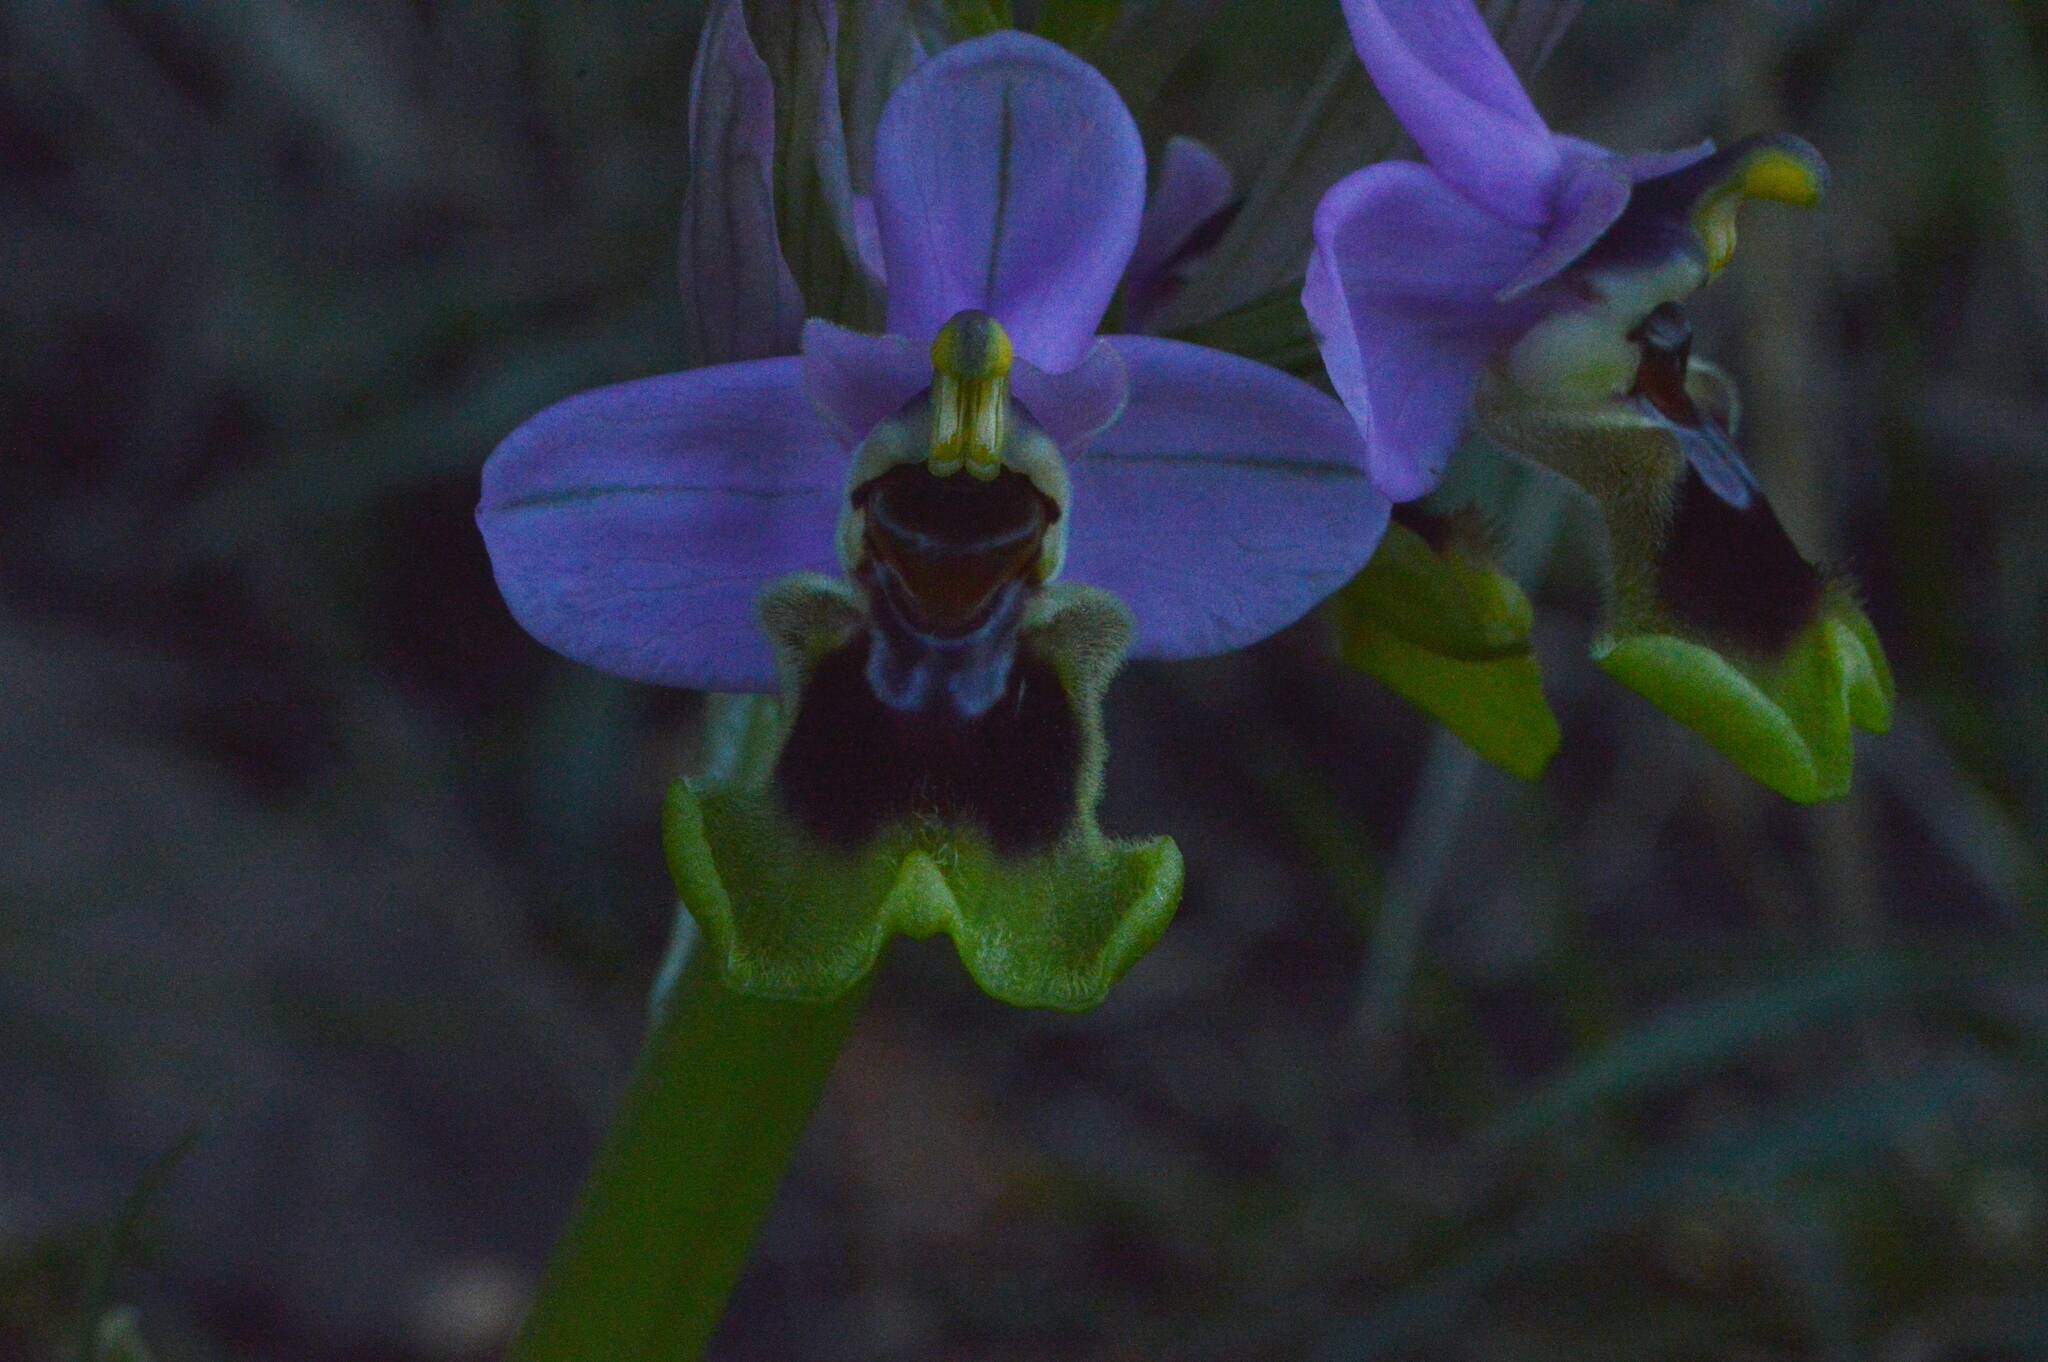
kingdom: Plantae
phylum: Tracheophyta
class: Liliopsida
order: Asparagales
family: Orchidaceae
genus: Ophrys
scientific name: Ophrys tenthredinifera
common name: Sawfly orchid
